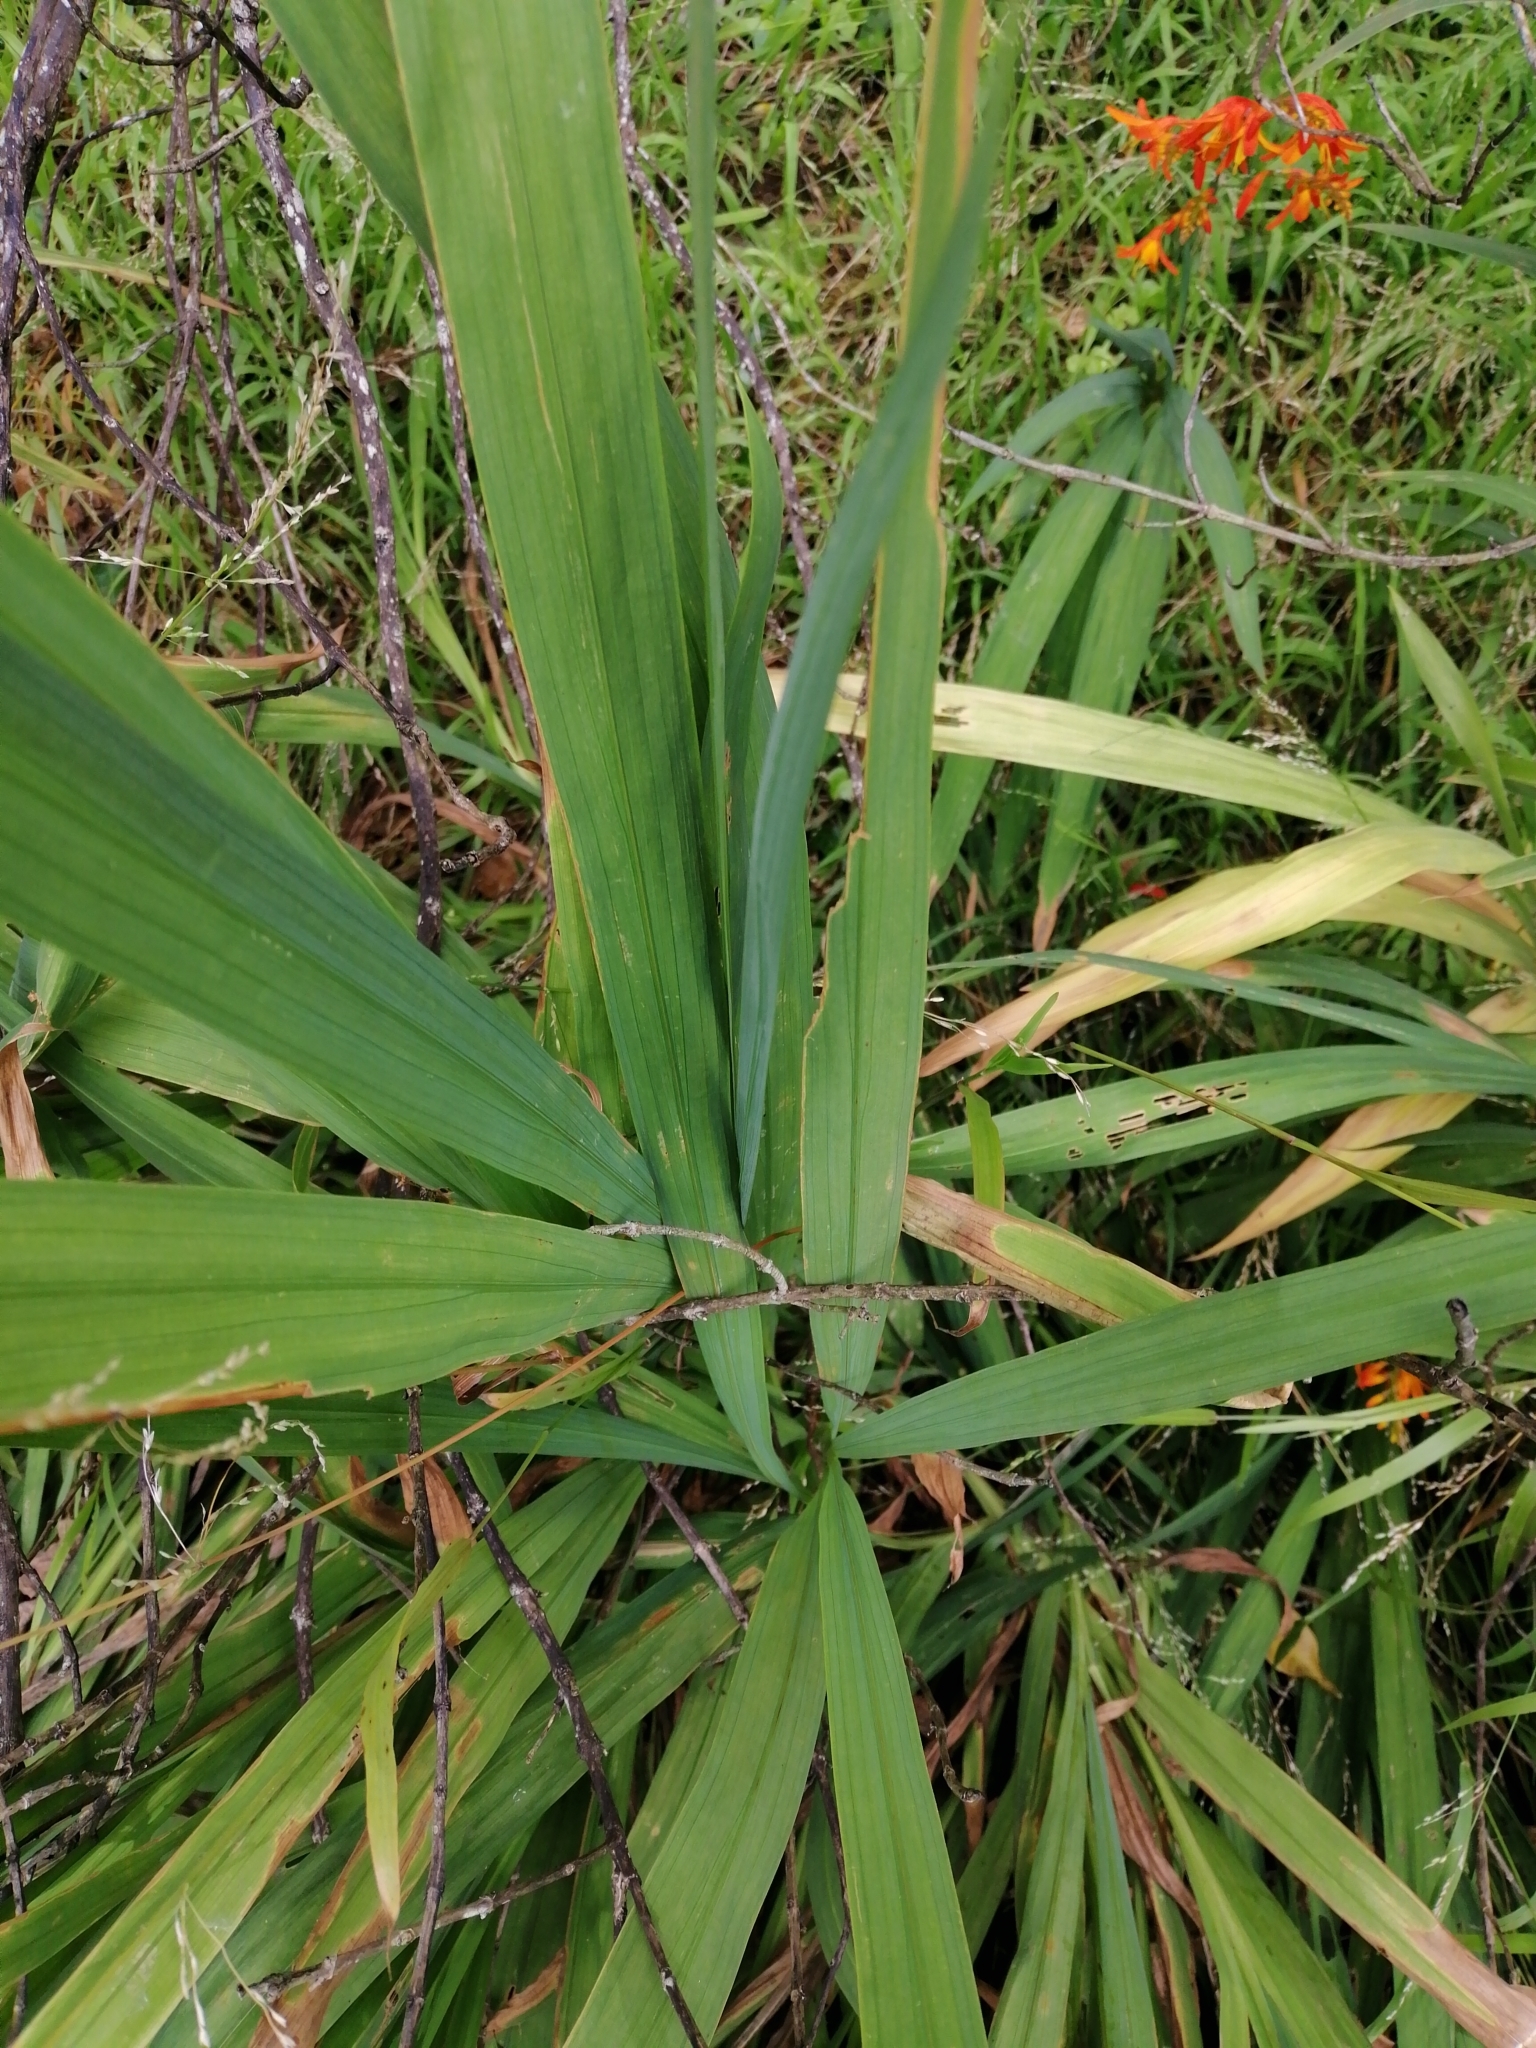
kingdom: Plantae
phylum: Tracheophyta
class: Liliopsida
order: Asparagales
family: Iridaceae
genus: Crocosmia
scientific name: Crocosmia crocosmiiflora
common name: Montbretia
